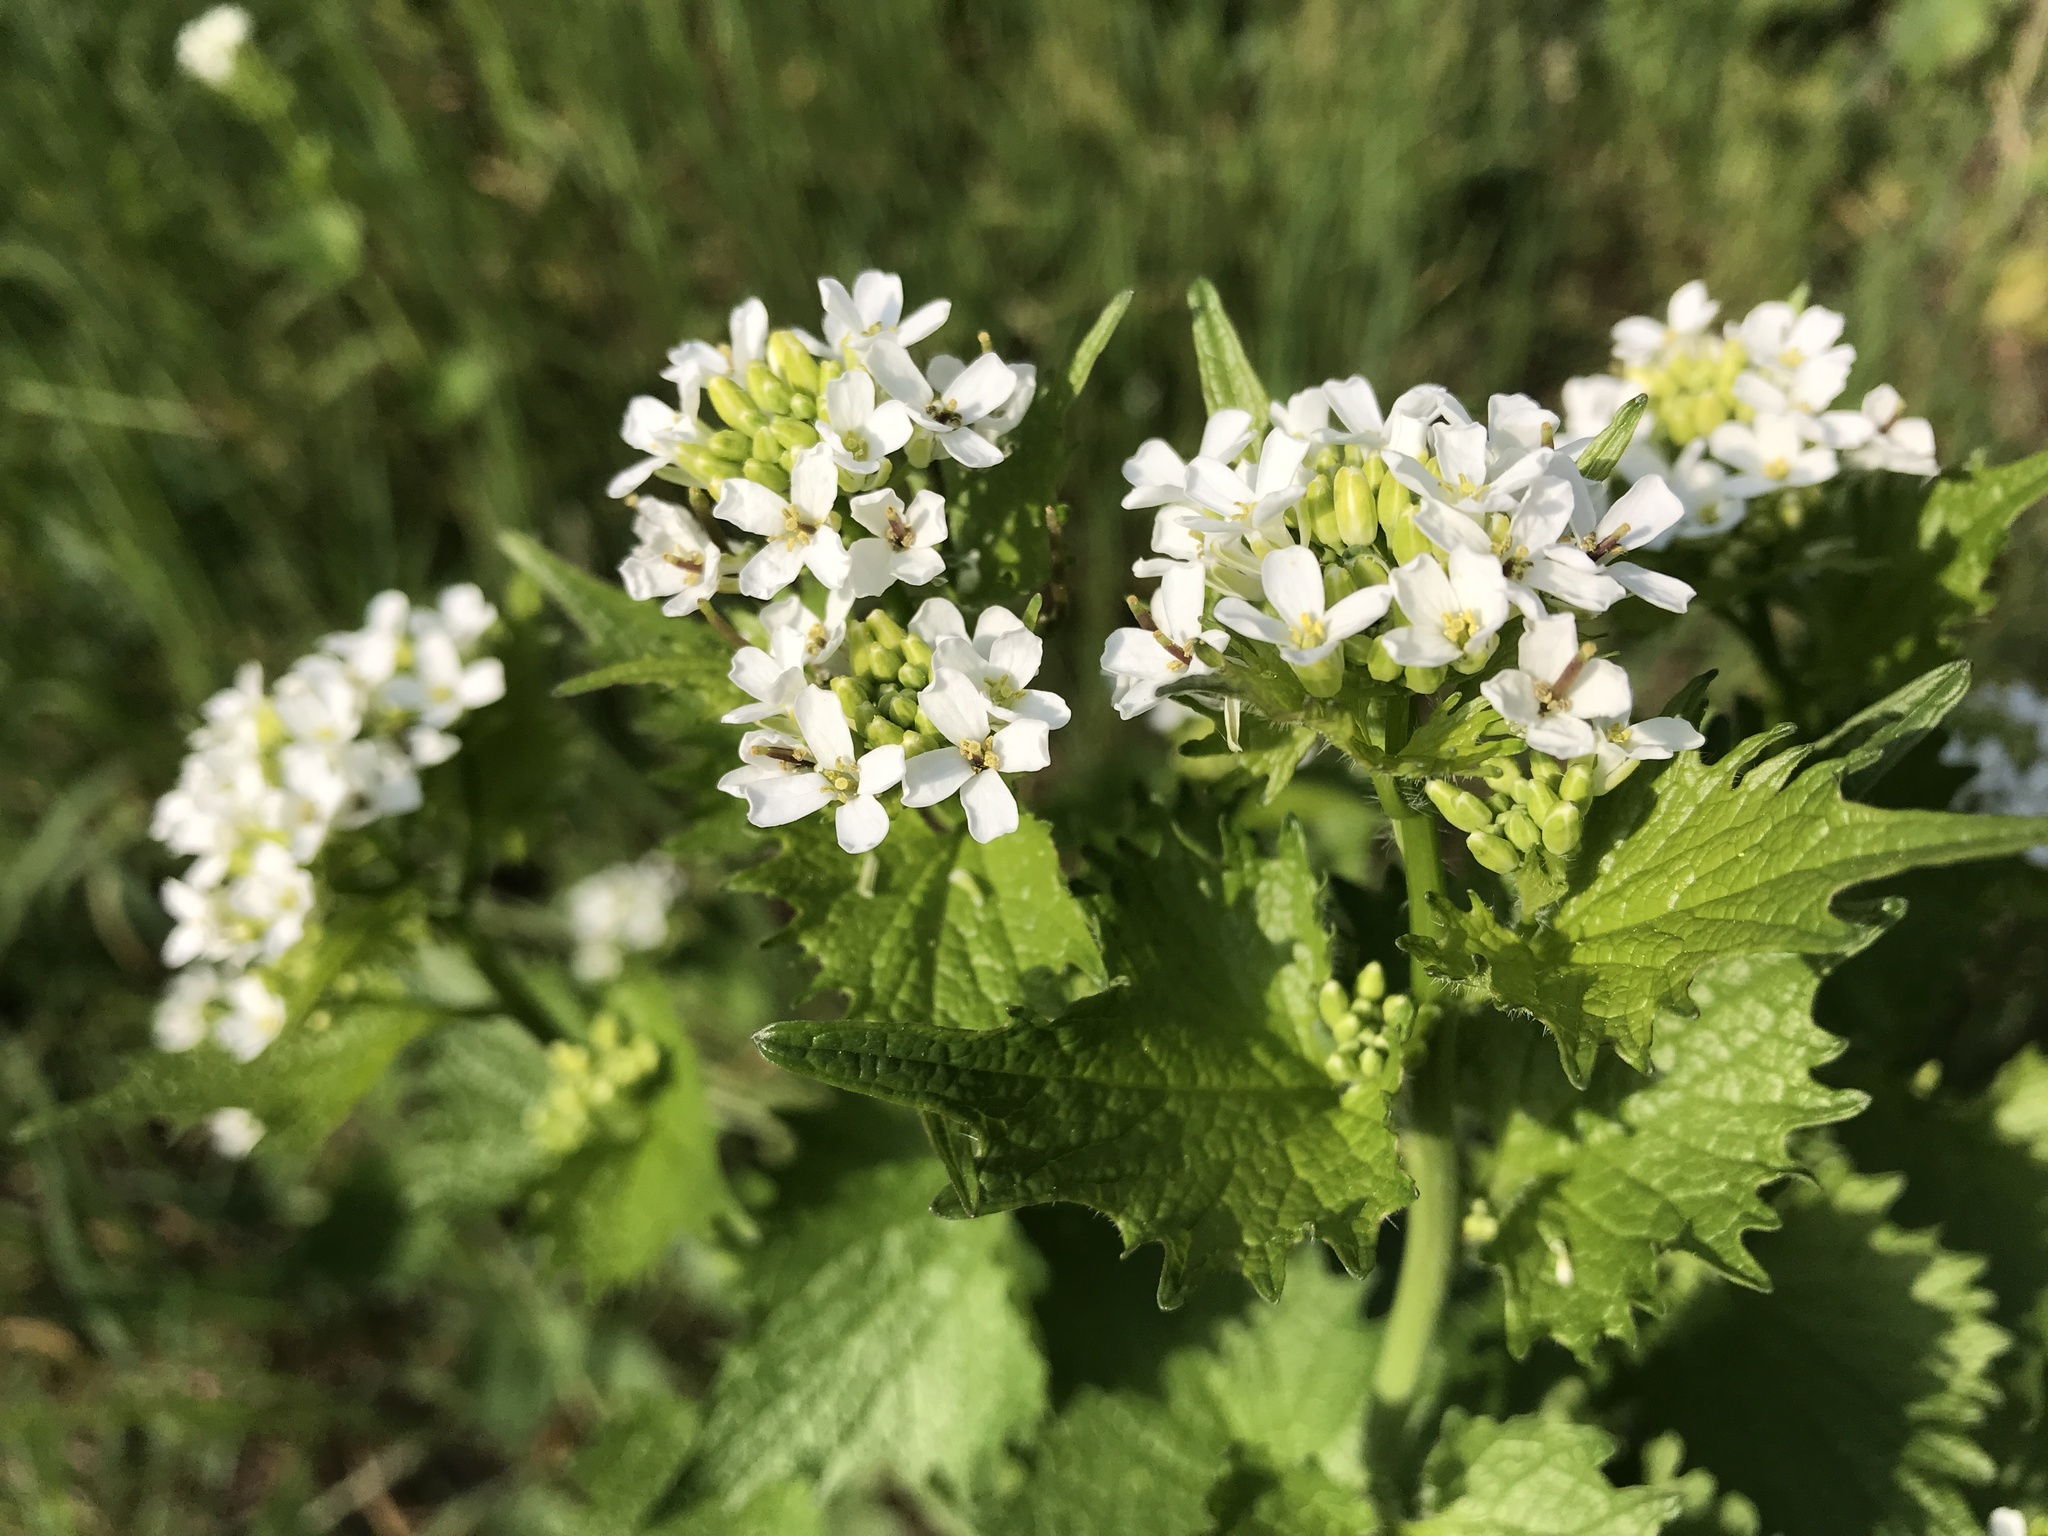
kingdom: Plantae
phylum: Tracheophyta
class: Magnoliopsida
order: Brassicales
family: Brassicaceae
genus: Alliaria
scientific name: Alliaria petiolata
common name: Garlic mustard
